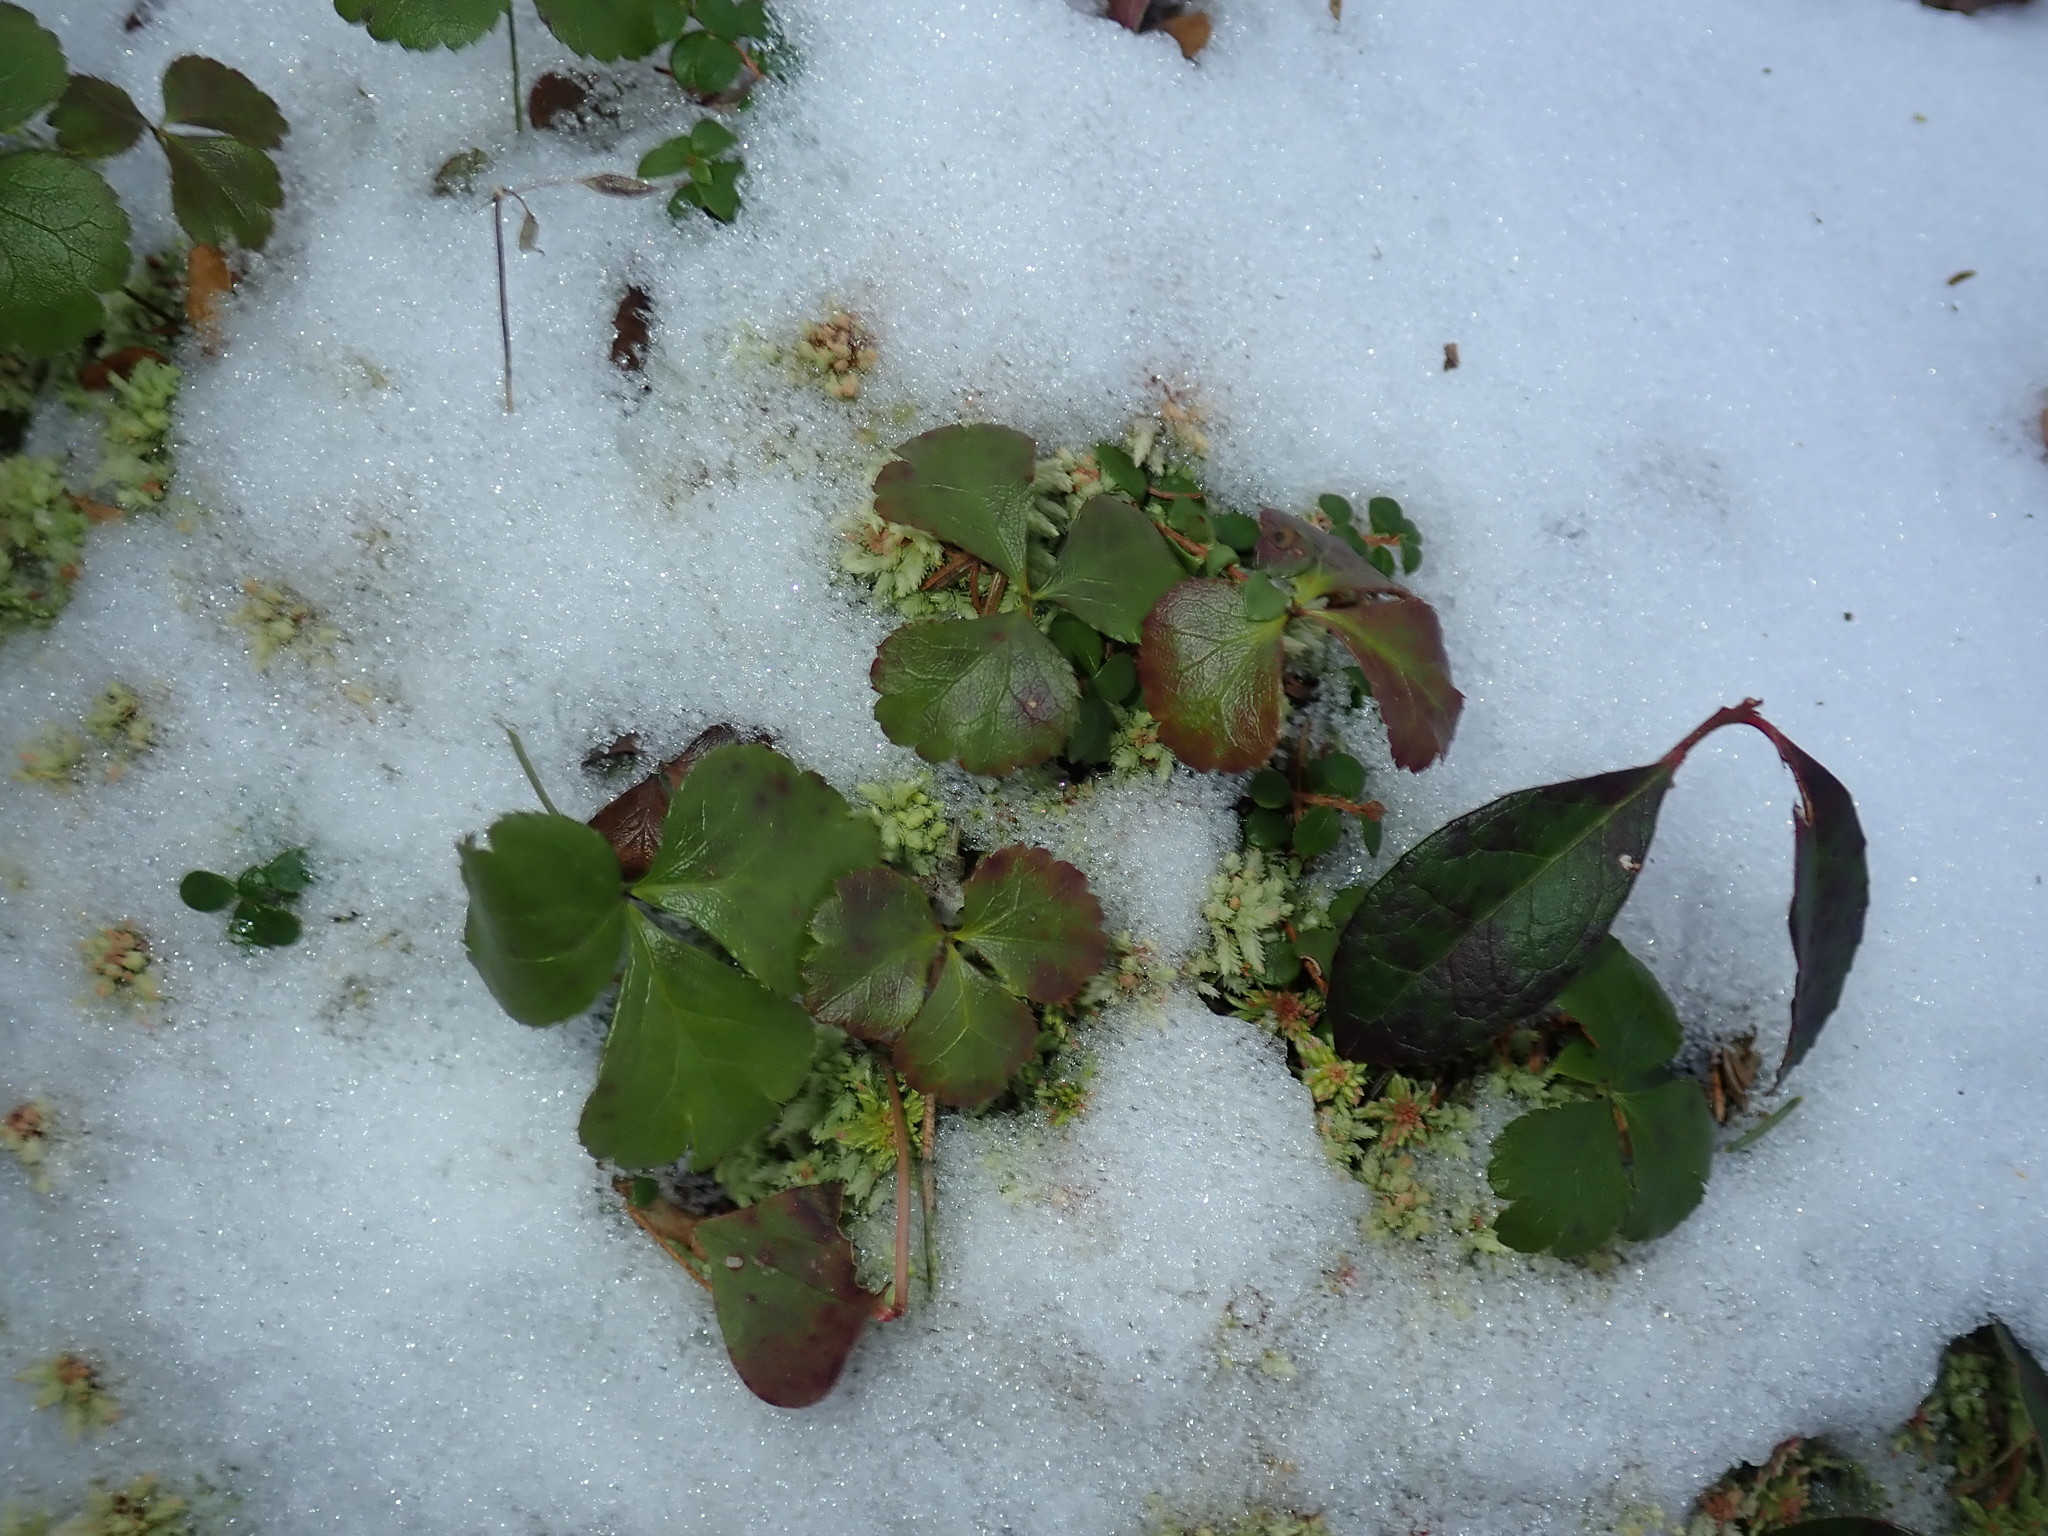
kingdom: Plantae
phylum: Tracheophyta
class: Magnoliopsida
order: Ranunculales
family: Ranunculaceae
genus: Coptis
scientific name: Coptis trifolia
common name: Canker-root
